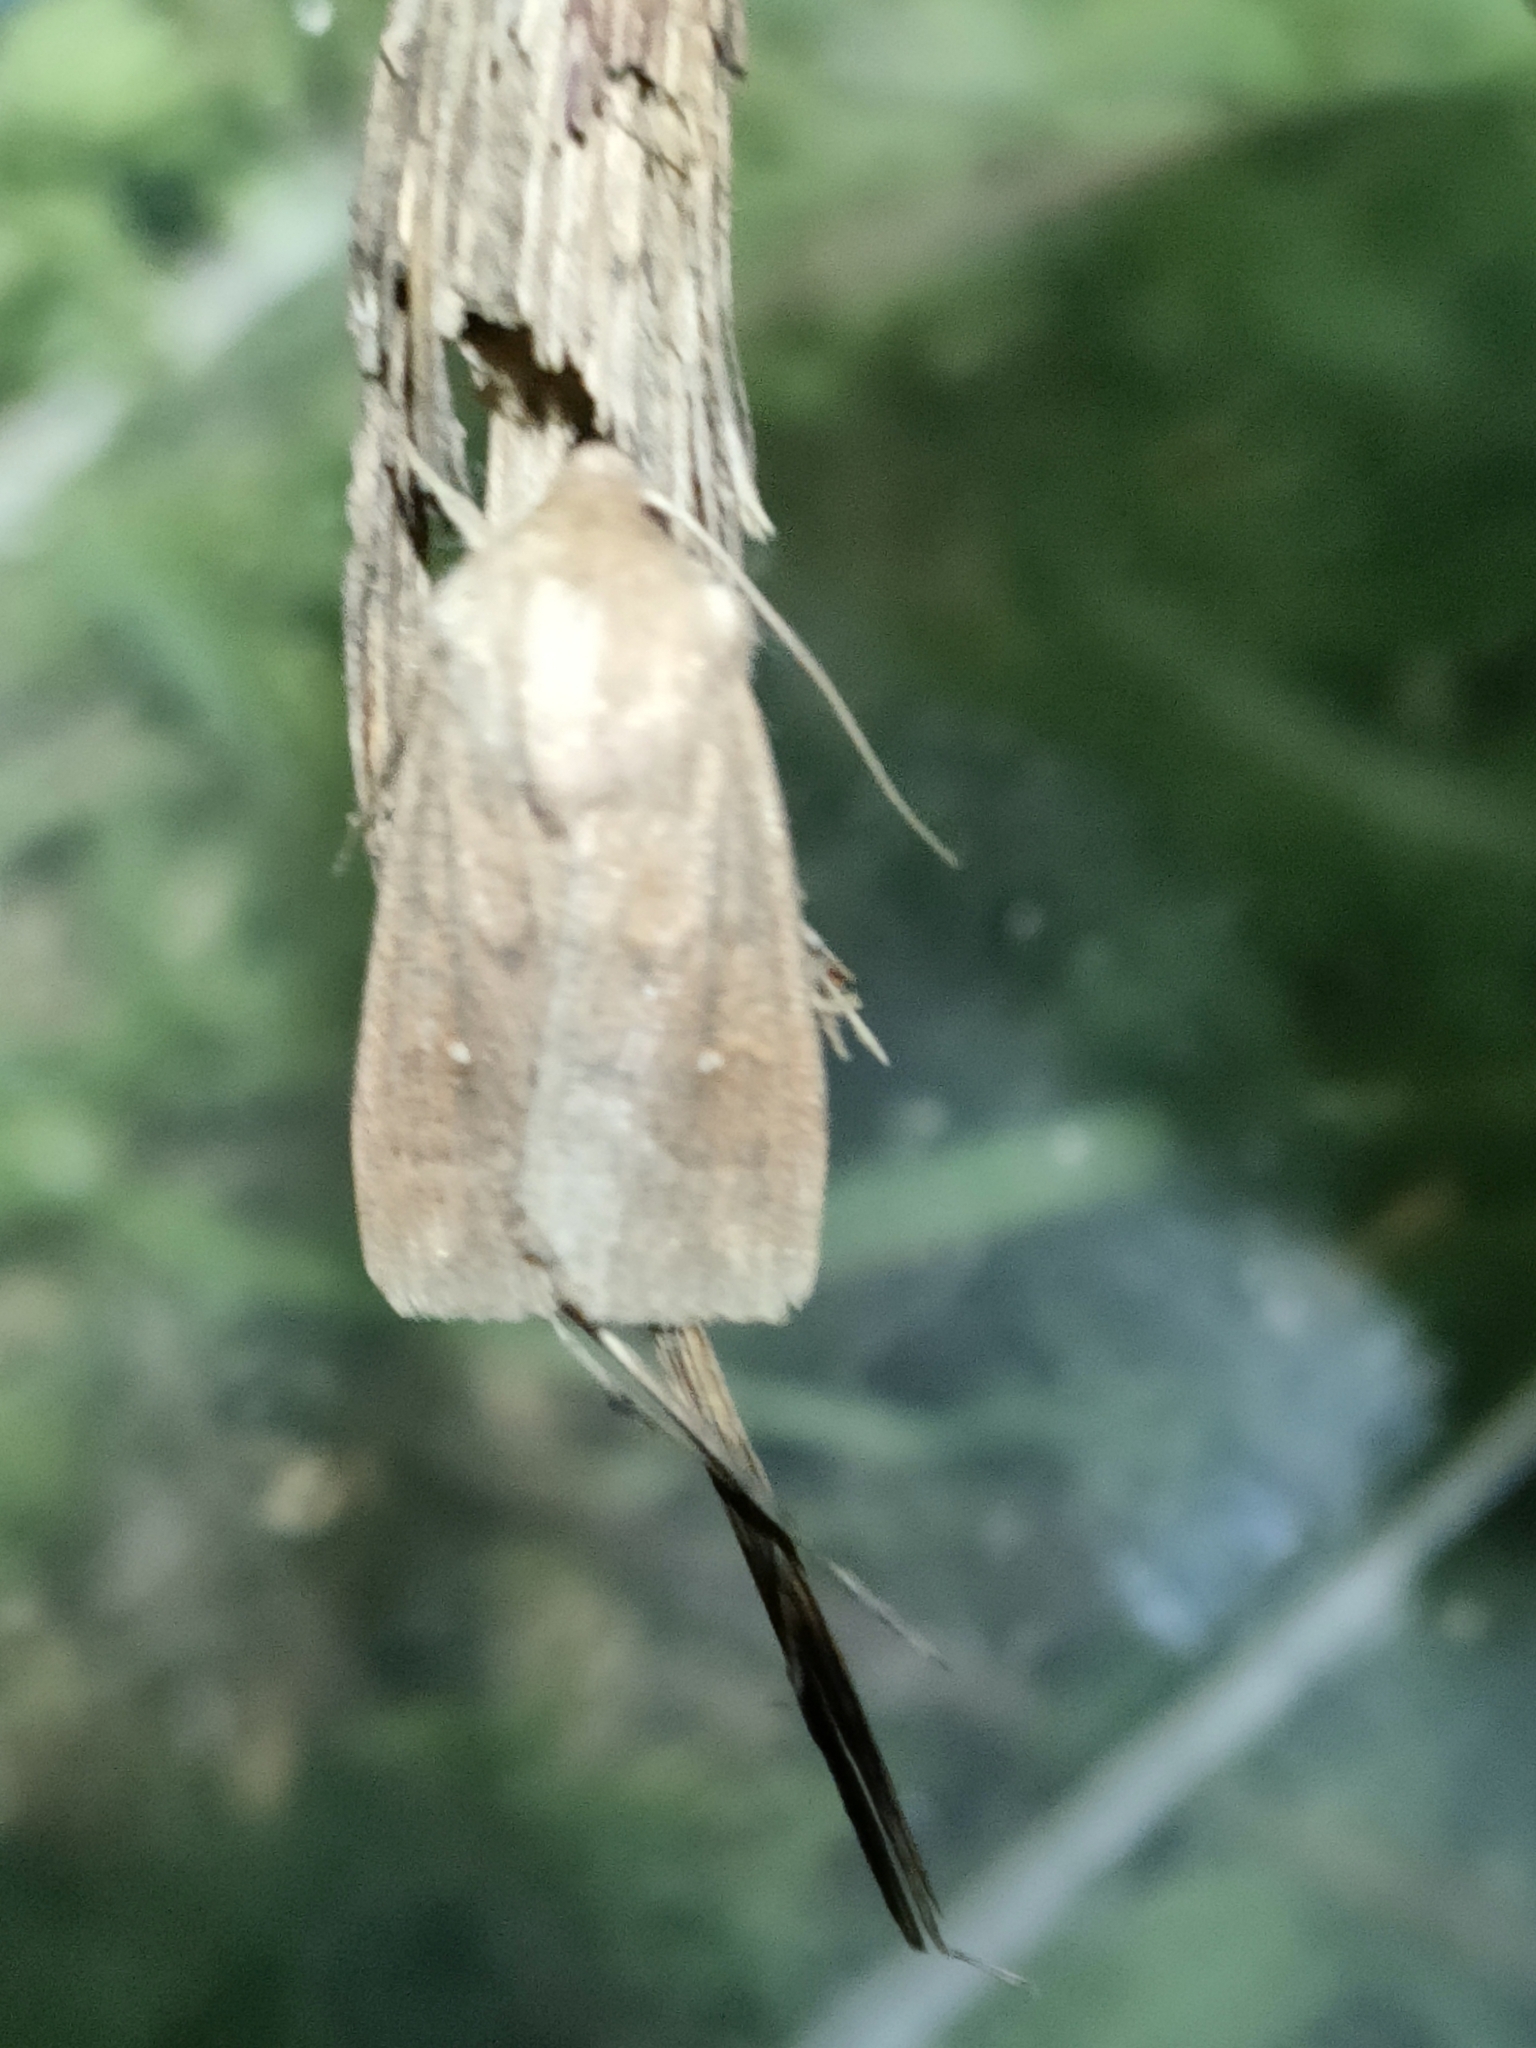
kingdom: Animalia
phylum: Arthropoda
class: Insecta
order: Lepidoptera
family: Noctuidae
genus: Mythimna
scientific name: Mythimna albipuncta
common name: White-point
